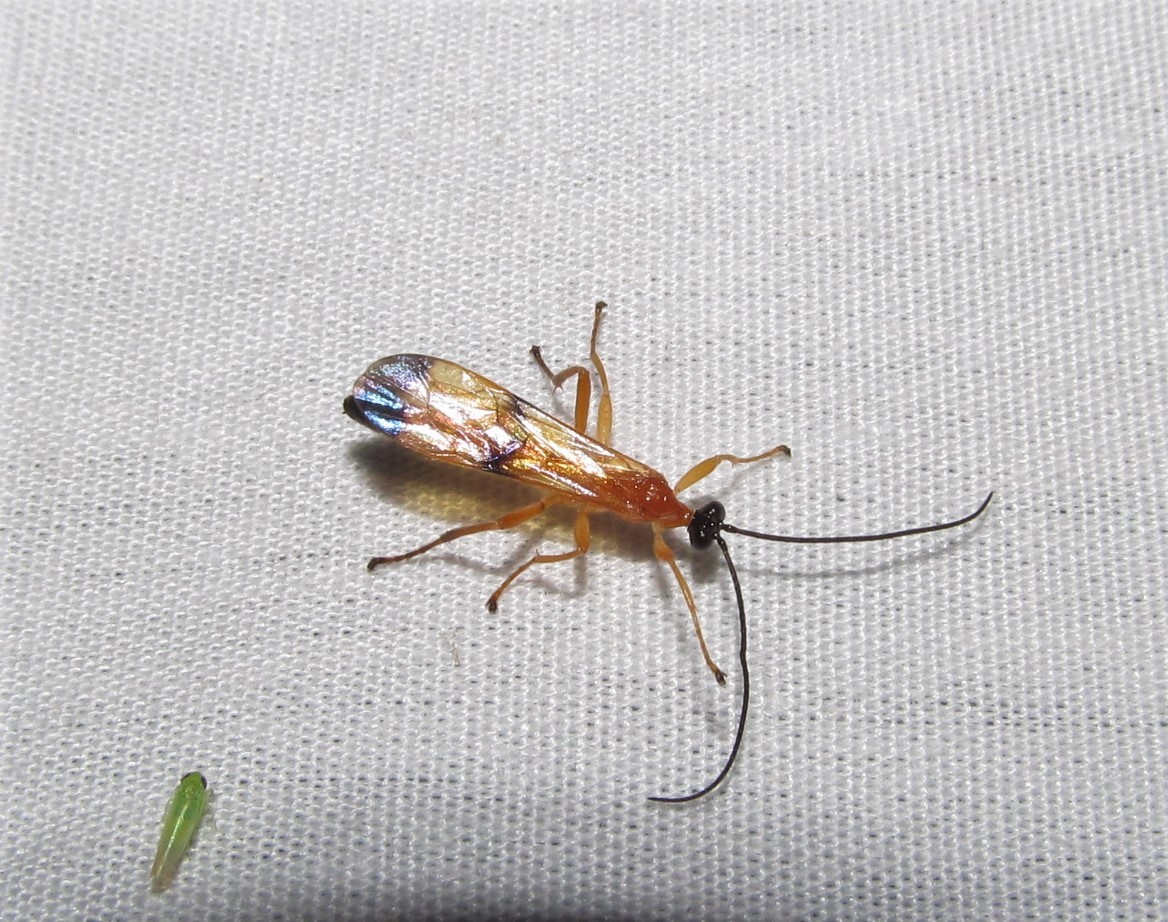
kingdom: Animalia
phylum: Arthropoda
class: Insecta
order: Hymenoptera
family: Ichneumonidae
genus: Acrotaphus
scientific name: Acrotaphus wiltii
